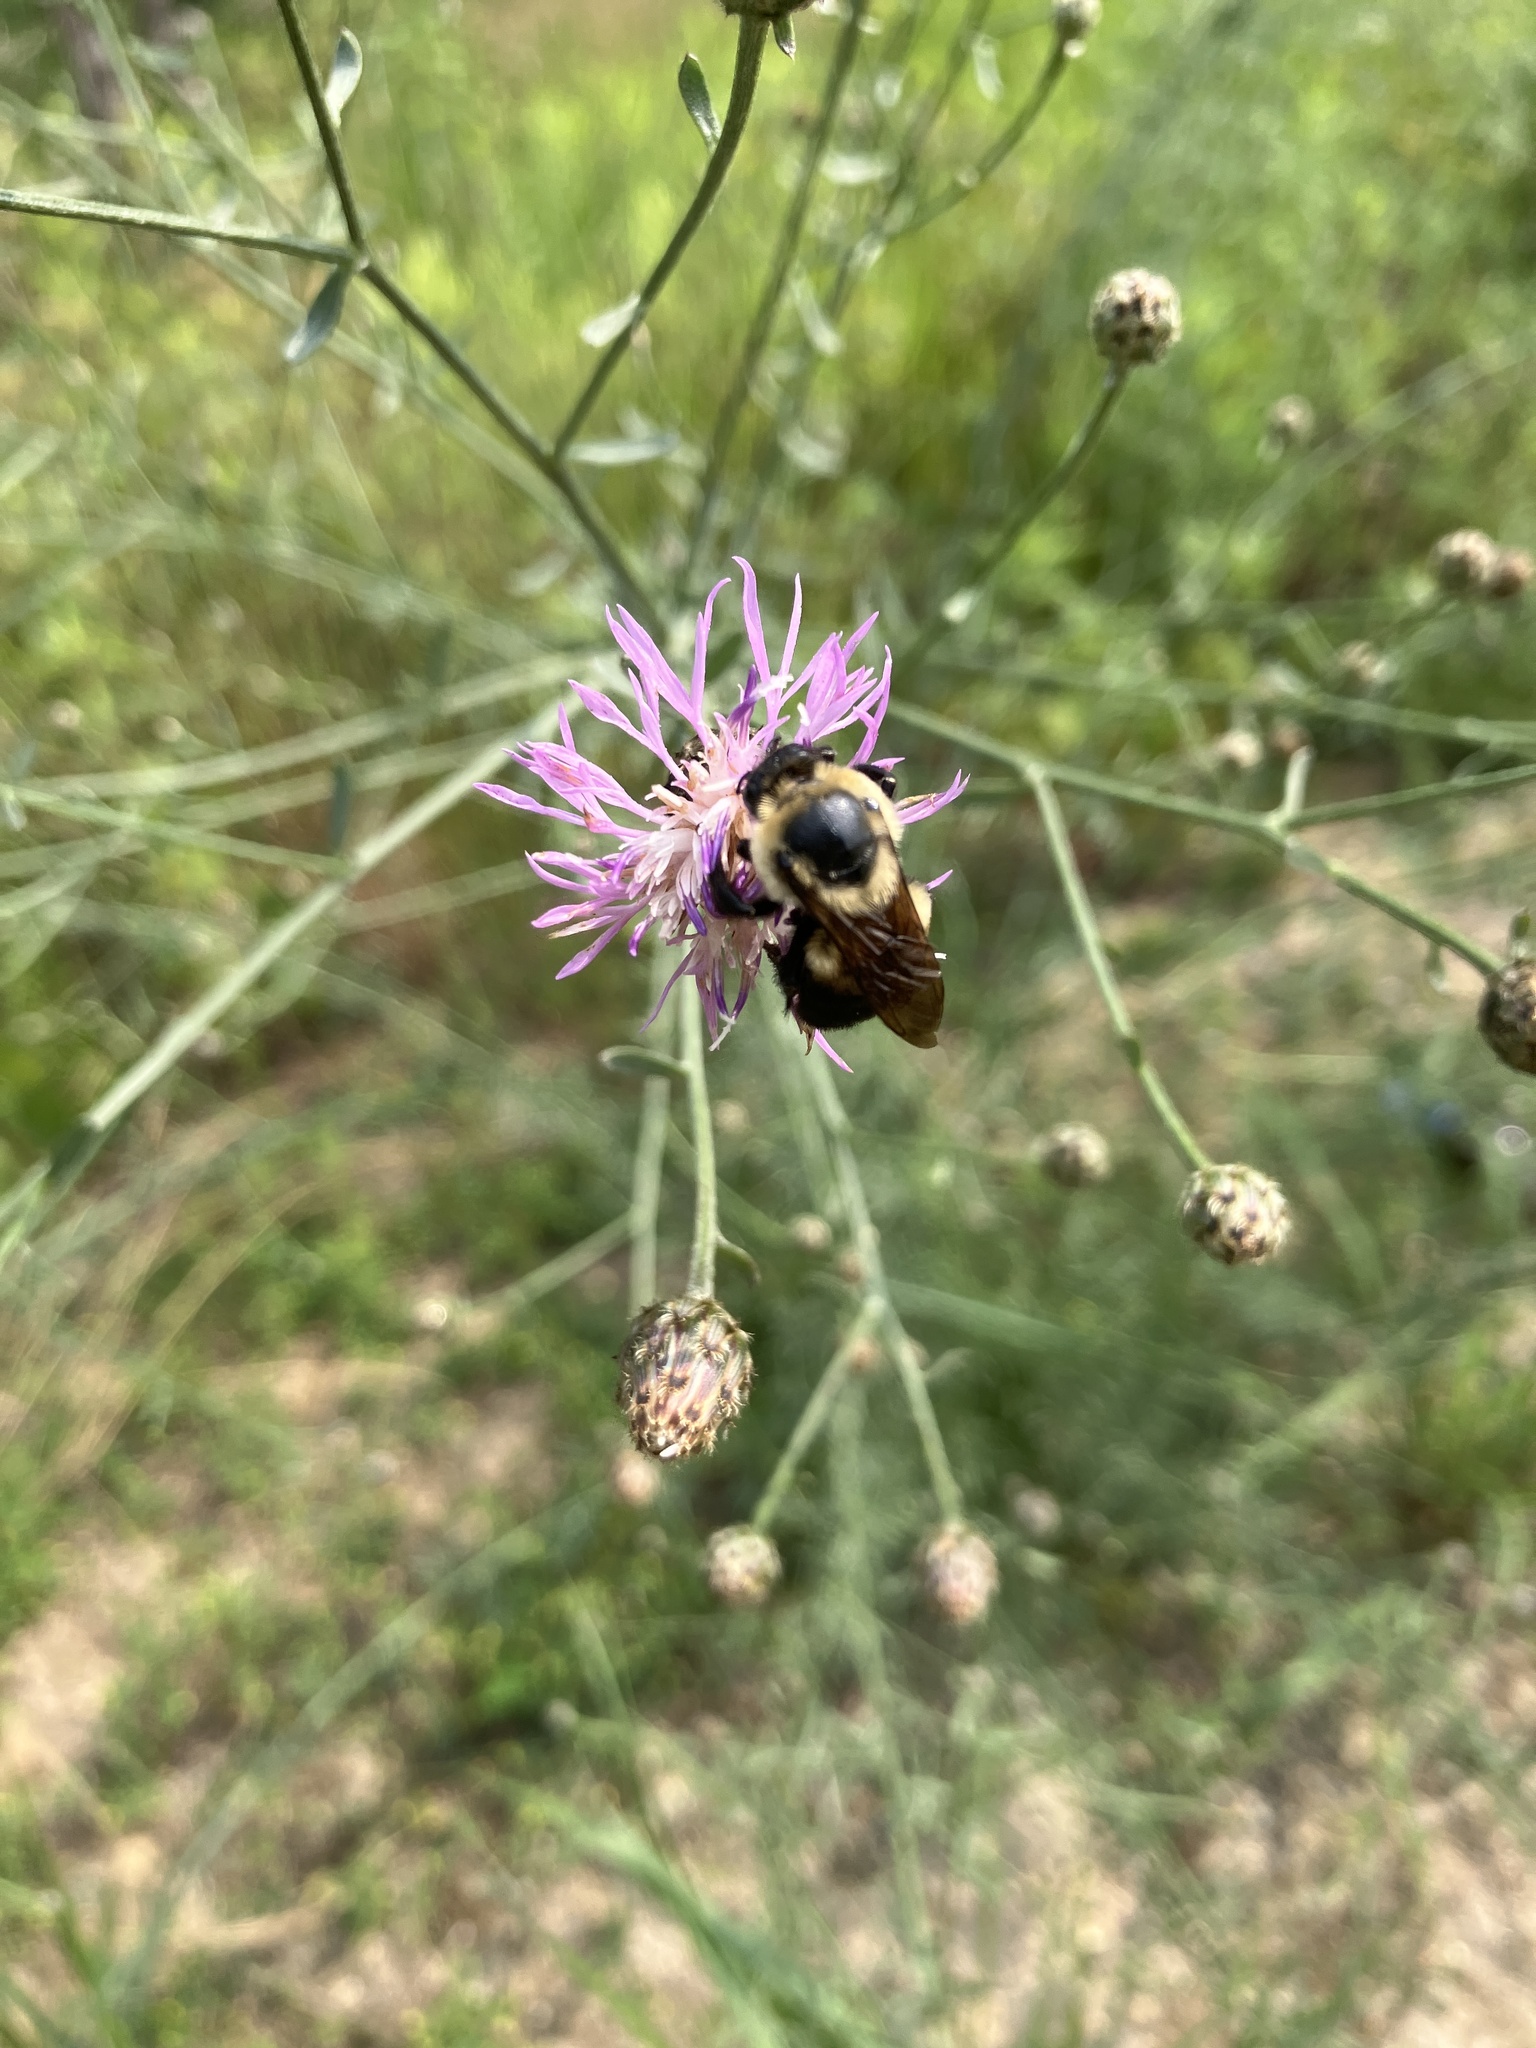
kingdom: Animalia
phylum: Arthropoda
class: Insecta
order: Hymenoptera
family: Apidae
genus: Bombus
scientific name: Bombus griseocollis
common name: Brown-belted bumble bee
